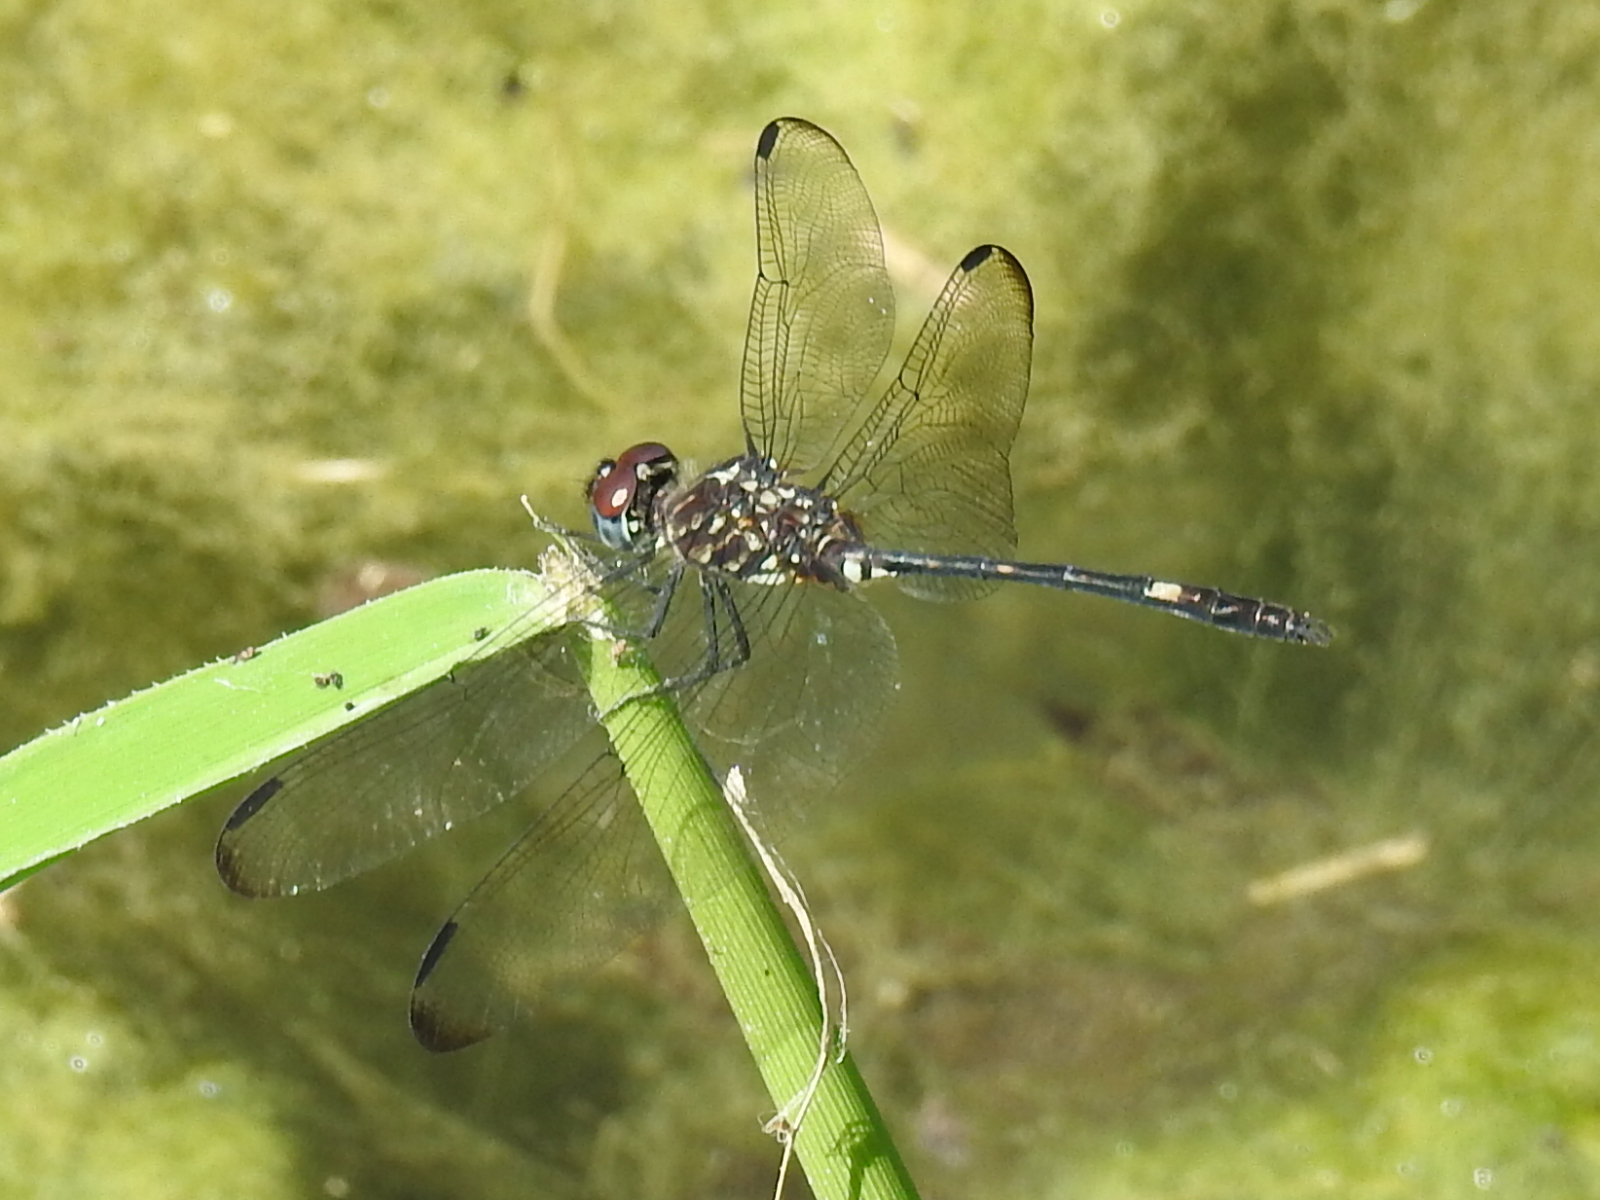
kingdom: Animalia
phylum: Arthropoda
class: Insecta
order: Odonata
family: Libellulidae
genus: Dythemis
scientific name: Dythemis velox
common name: Swift setwing
